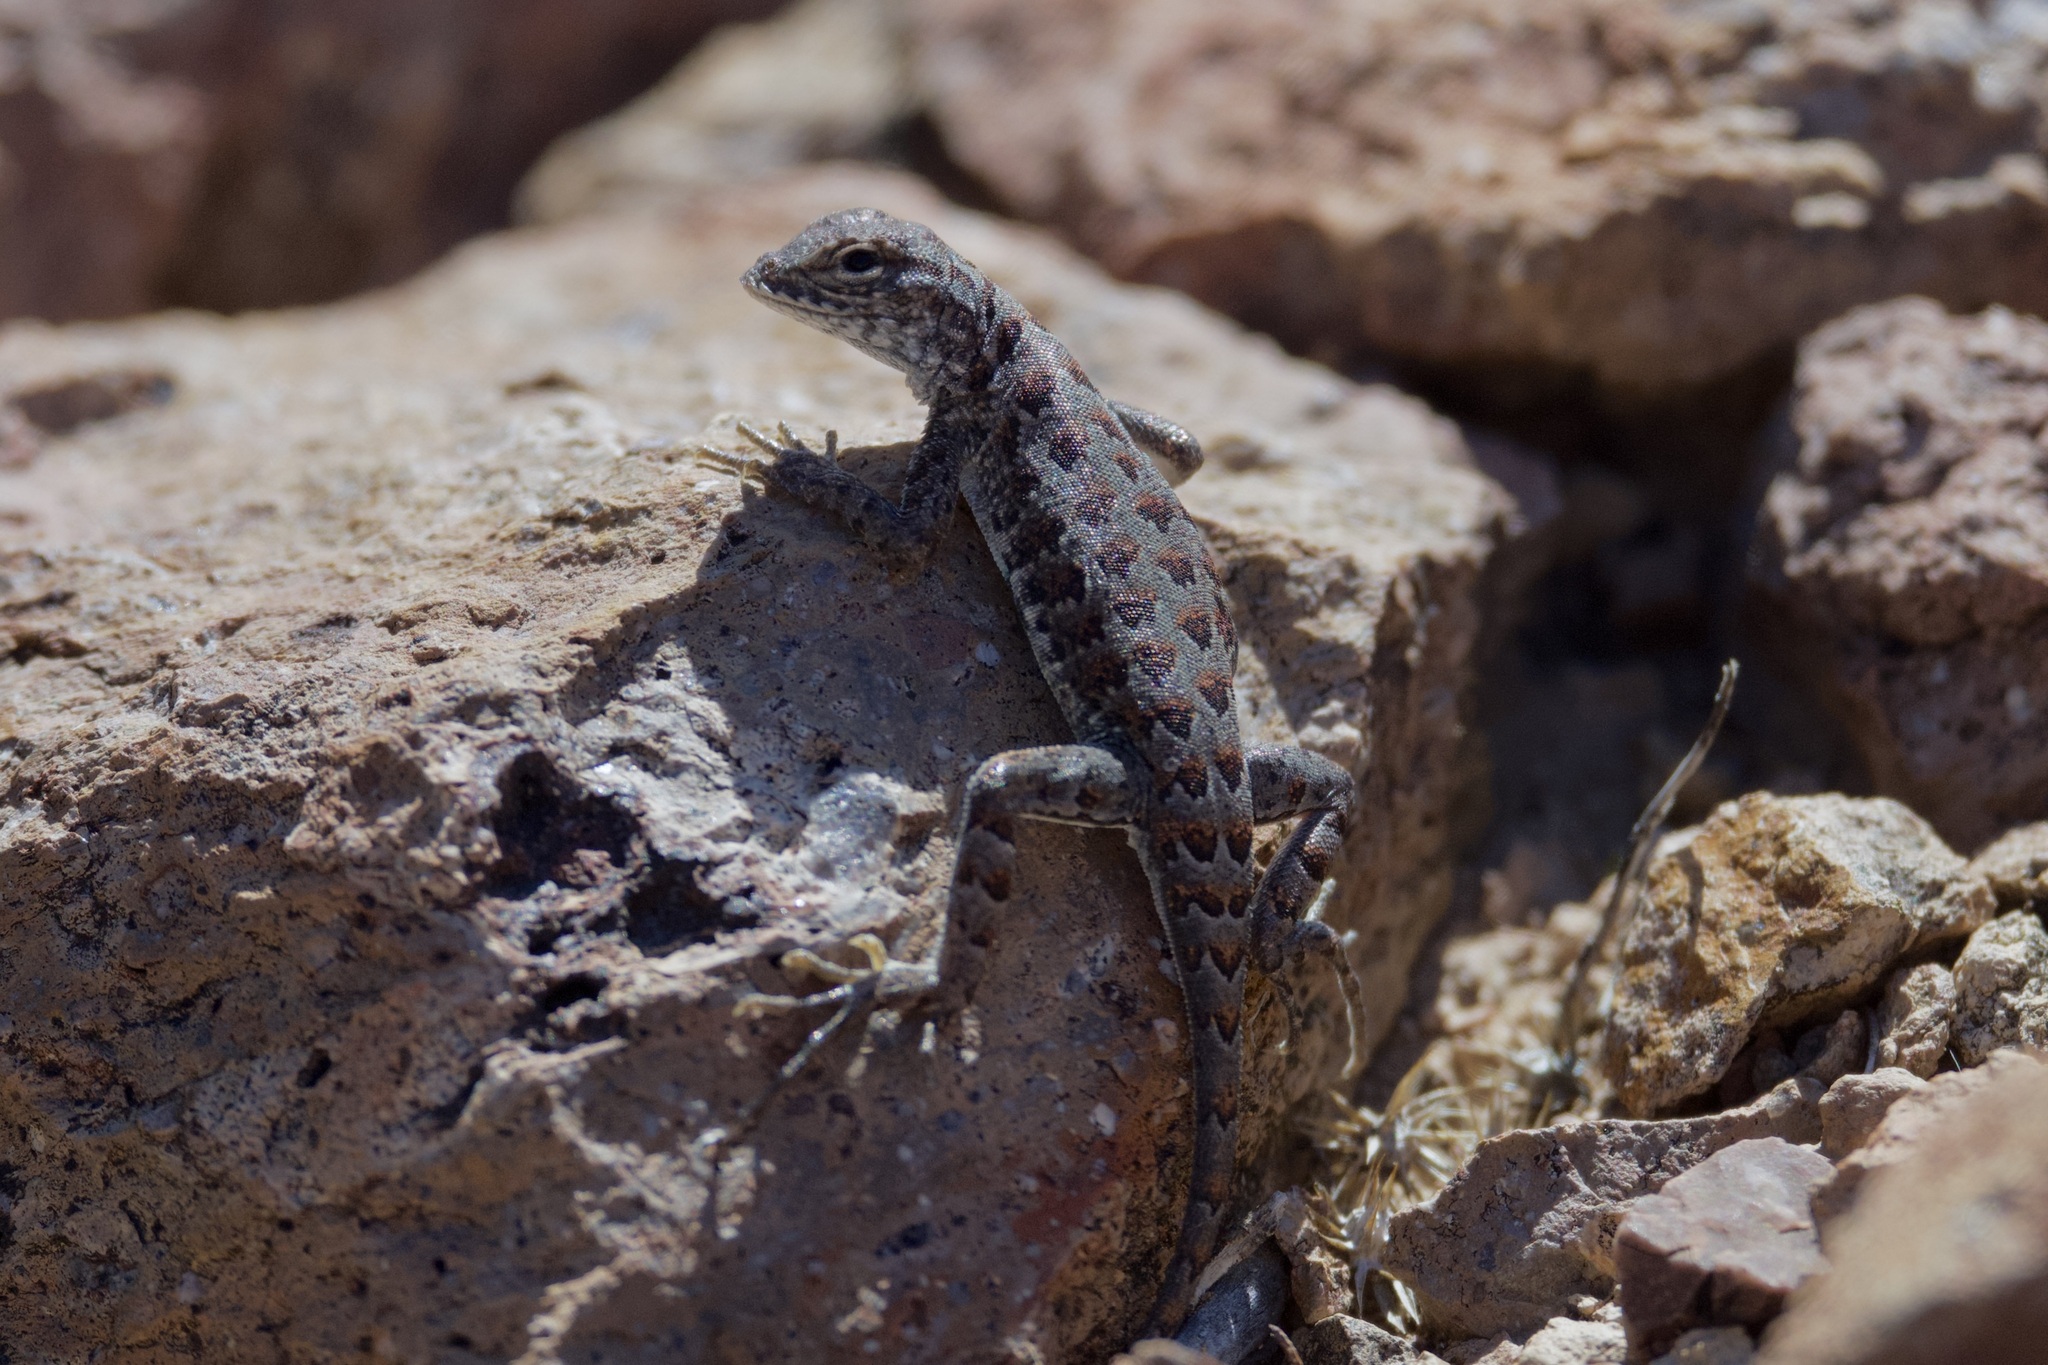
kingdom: Animalia
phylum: Chordata
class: Squamata
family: Phrynosomatidae
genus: Holbrookia
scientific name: Holbrookia elegans
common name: Elegant earless lizard
